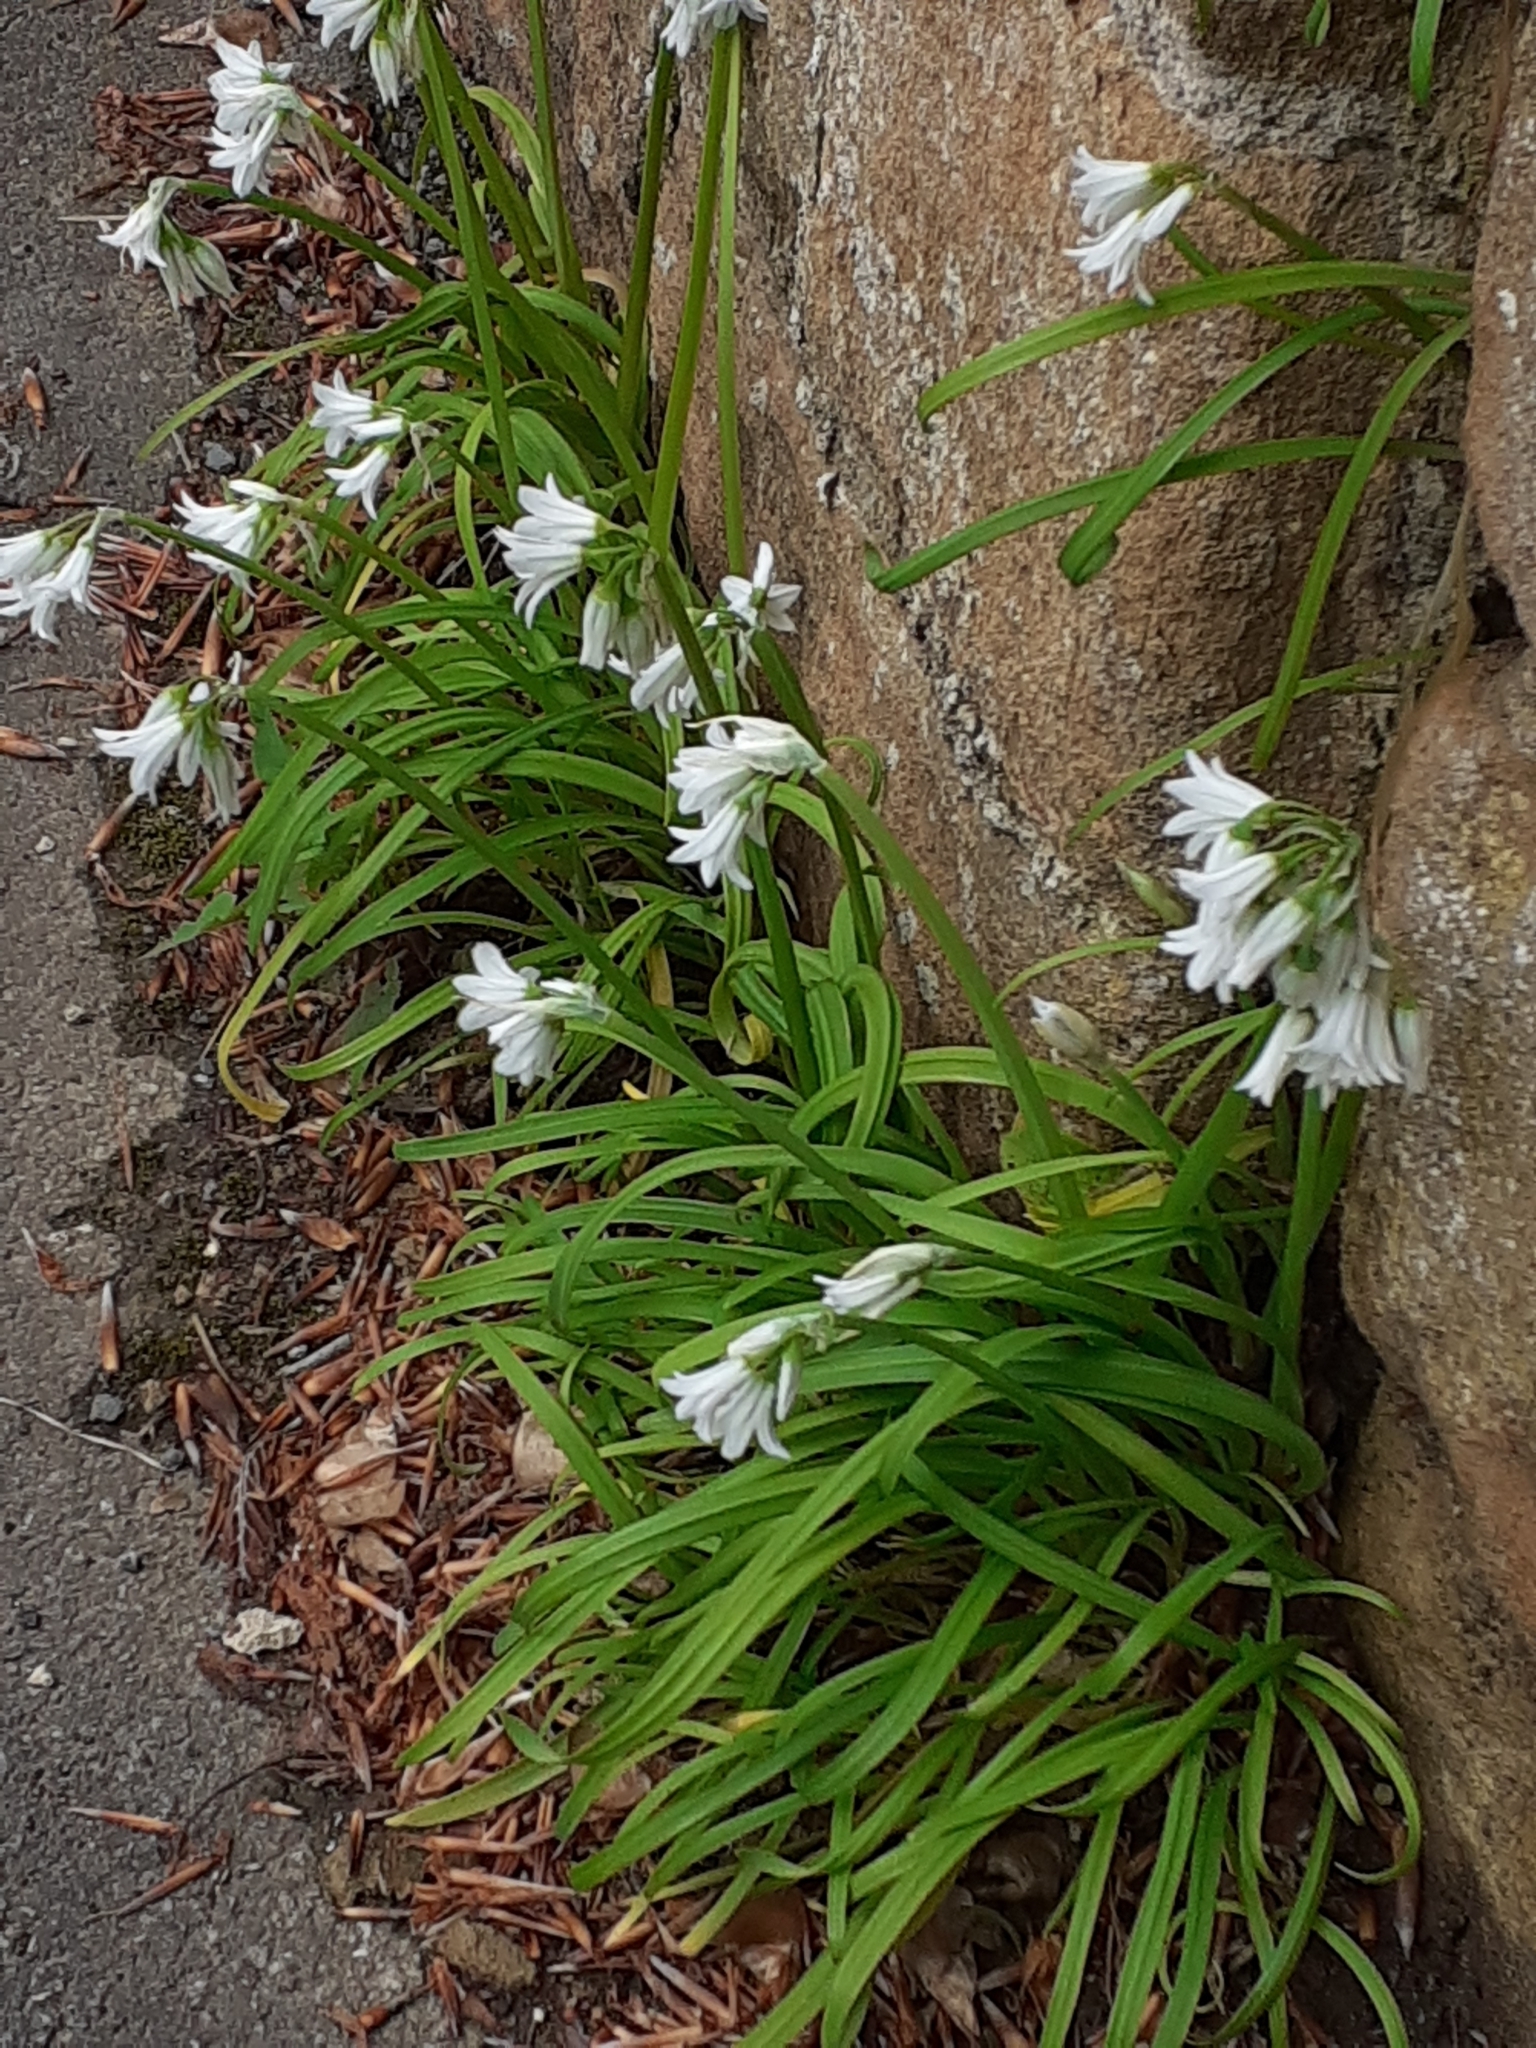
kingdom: Plantae
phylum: Tracheophyta
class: Liliopsida
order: Asparagales
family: Amaryllidaceae
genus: Allium
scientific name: Allium triquetrum
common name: Three-cornered garlic
